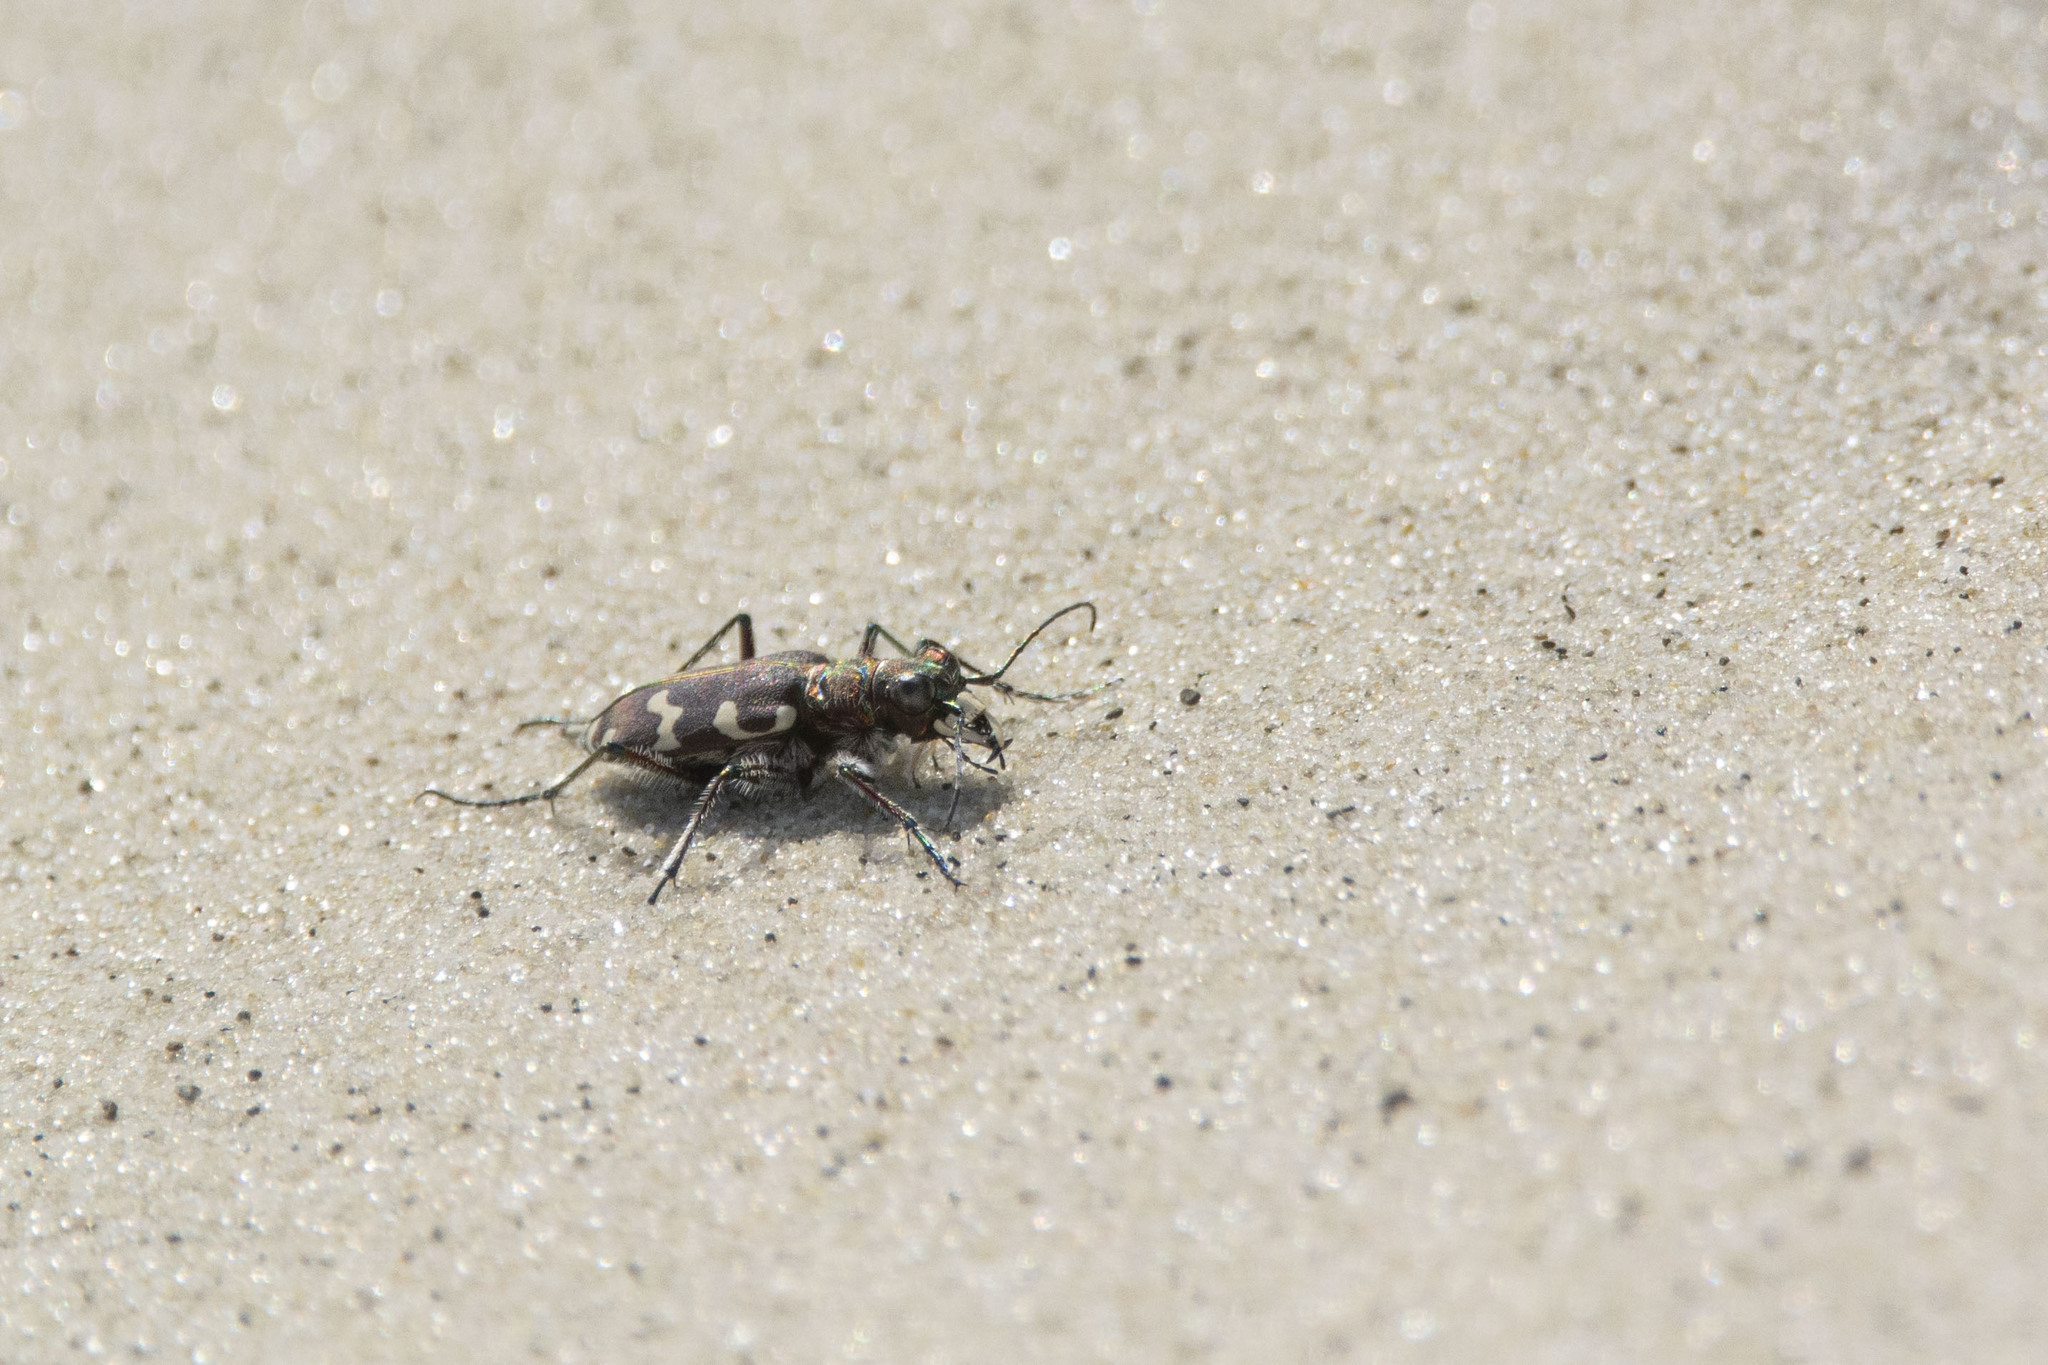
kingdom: Animalia
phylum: Arthropoda
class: Insecta
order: Coleoptera
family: Carabidae
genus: Cicindela
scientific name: Cicindela hybrida
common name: Northern dune tiger beetle
